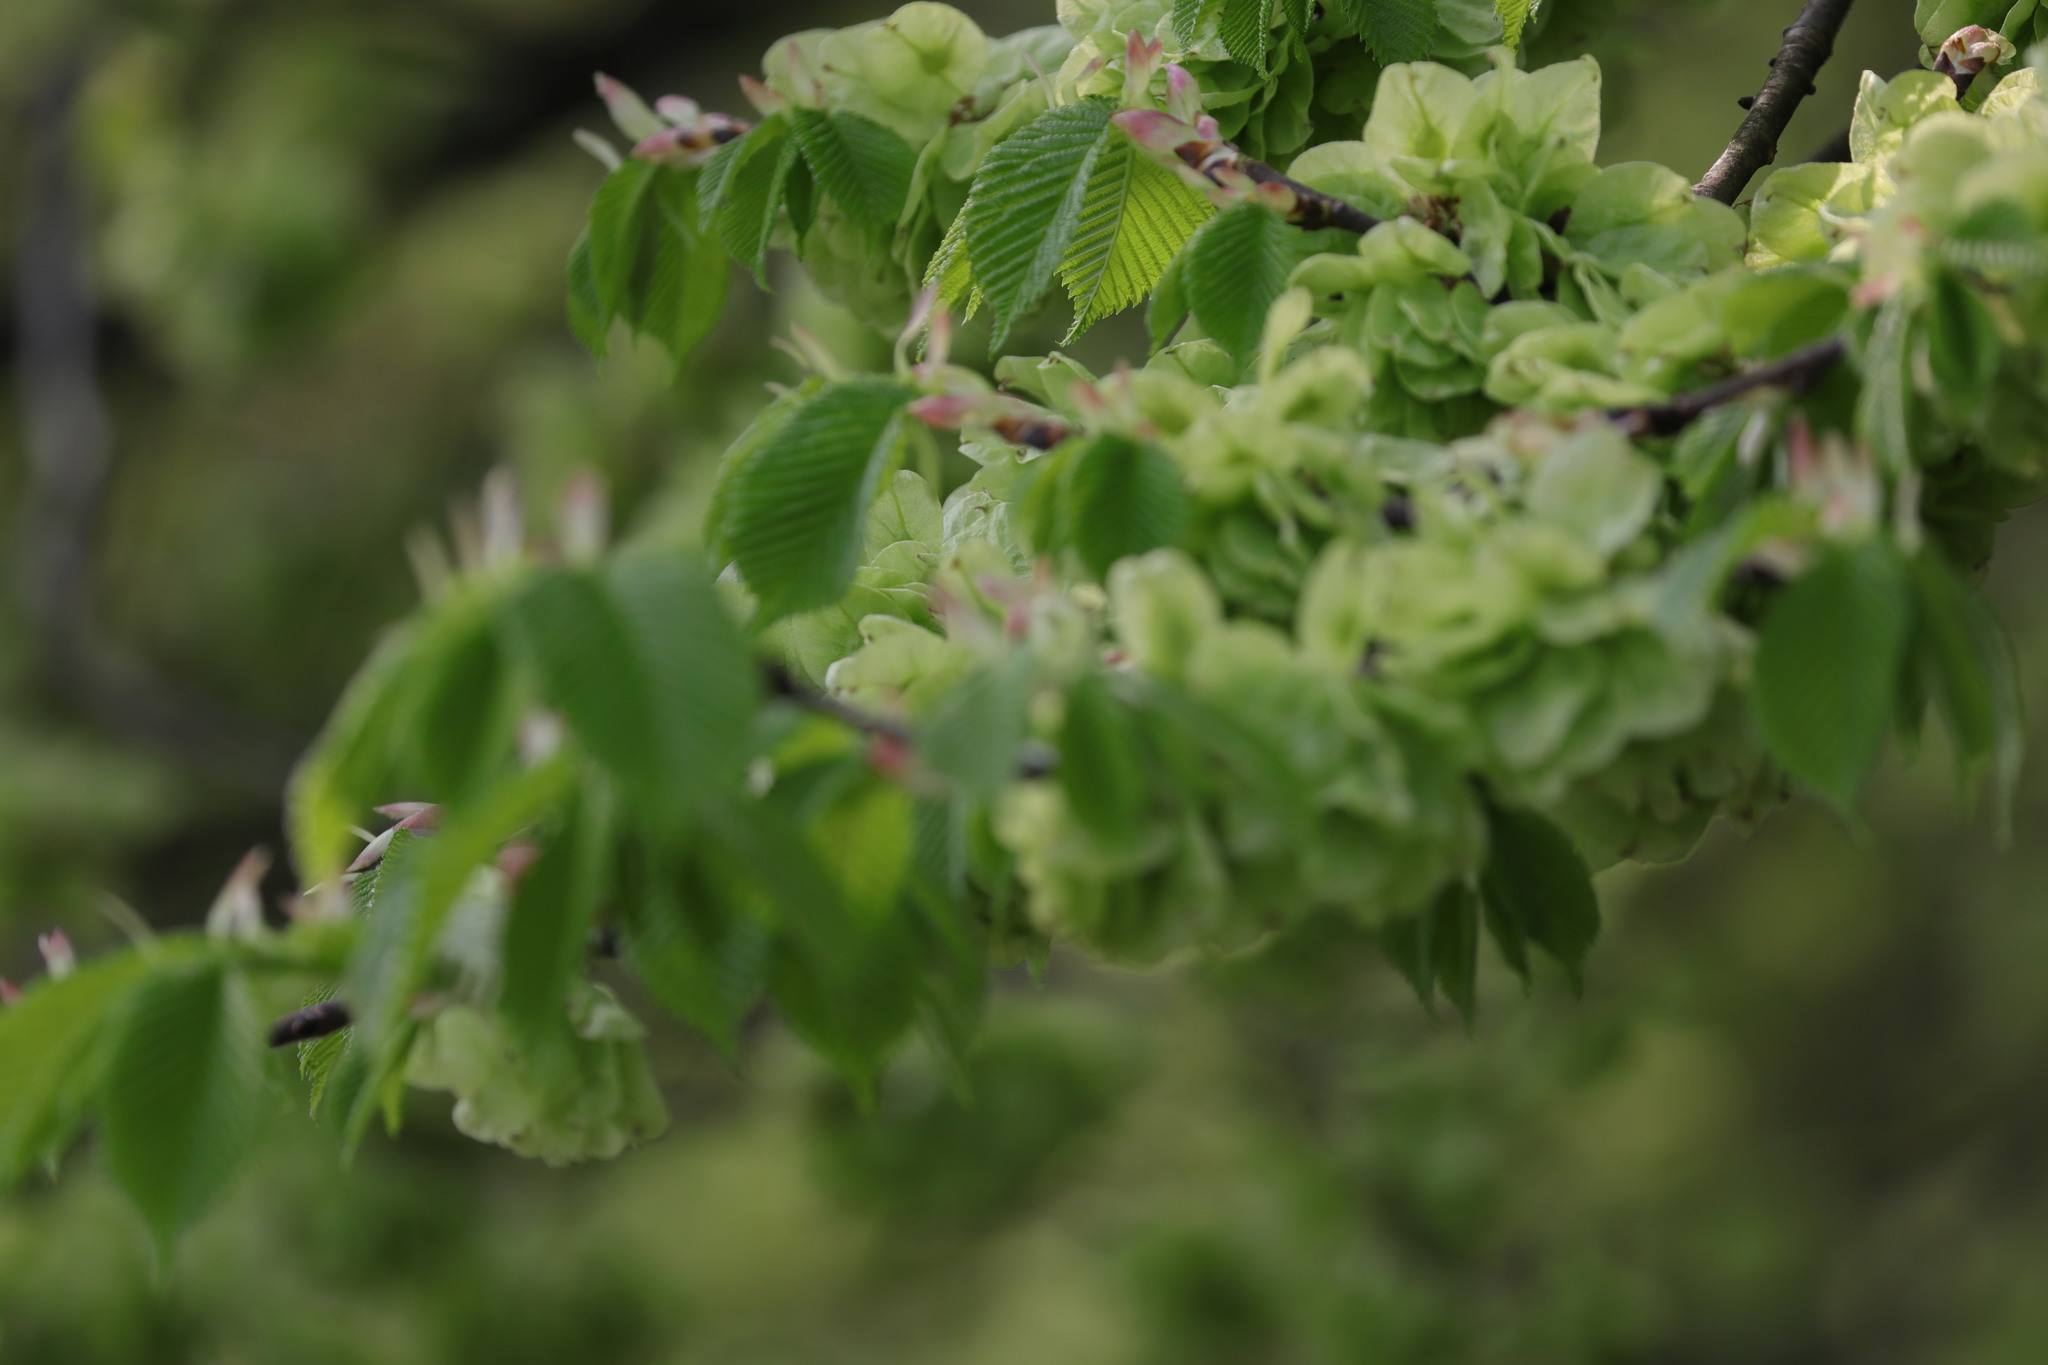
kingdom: Plantae
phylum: Tracheophyta
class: Magnoliopsida
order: Rosales
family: Ulmaceae
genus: Ulmus
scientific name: Ulmus glabra
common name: Wych elm
